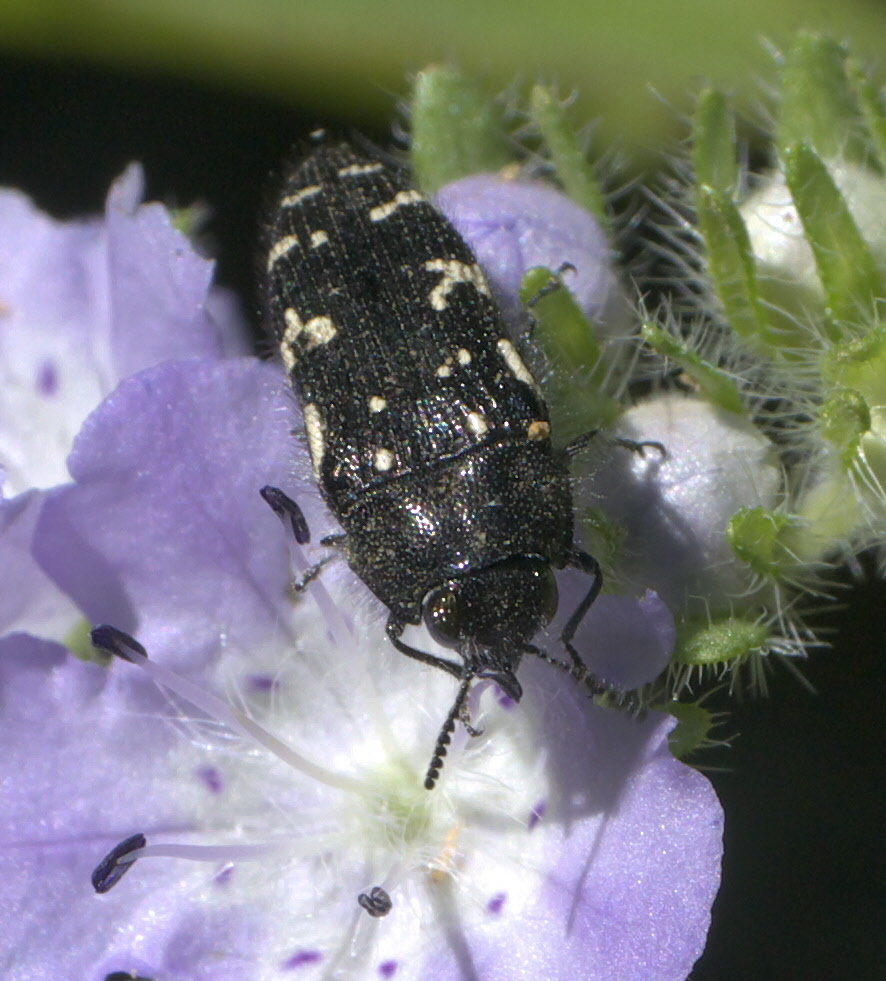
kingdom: Animalia
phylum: Arthropoda
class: Insecta
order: Coleoptera
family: Buprestidae
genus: Acmaeodera
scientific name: Acmaeodera ornata
